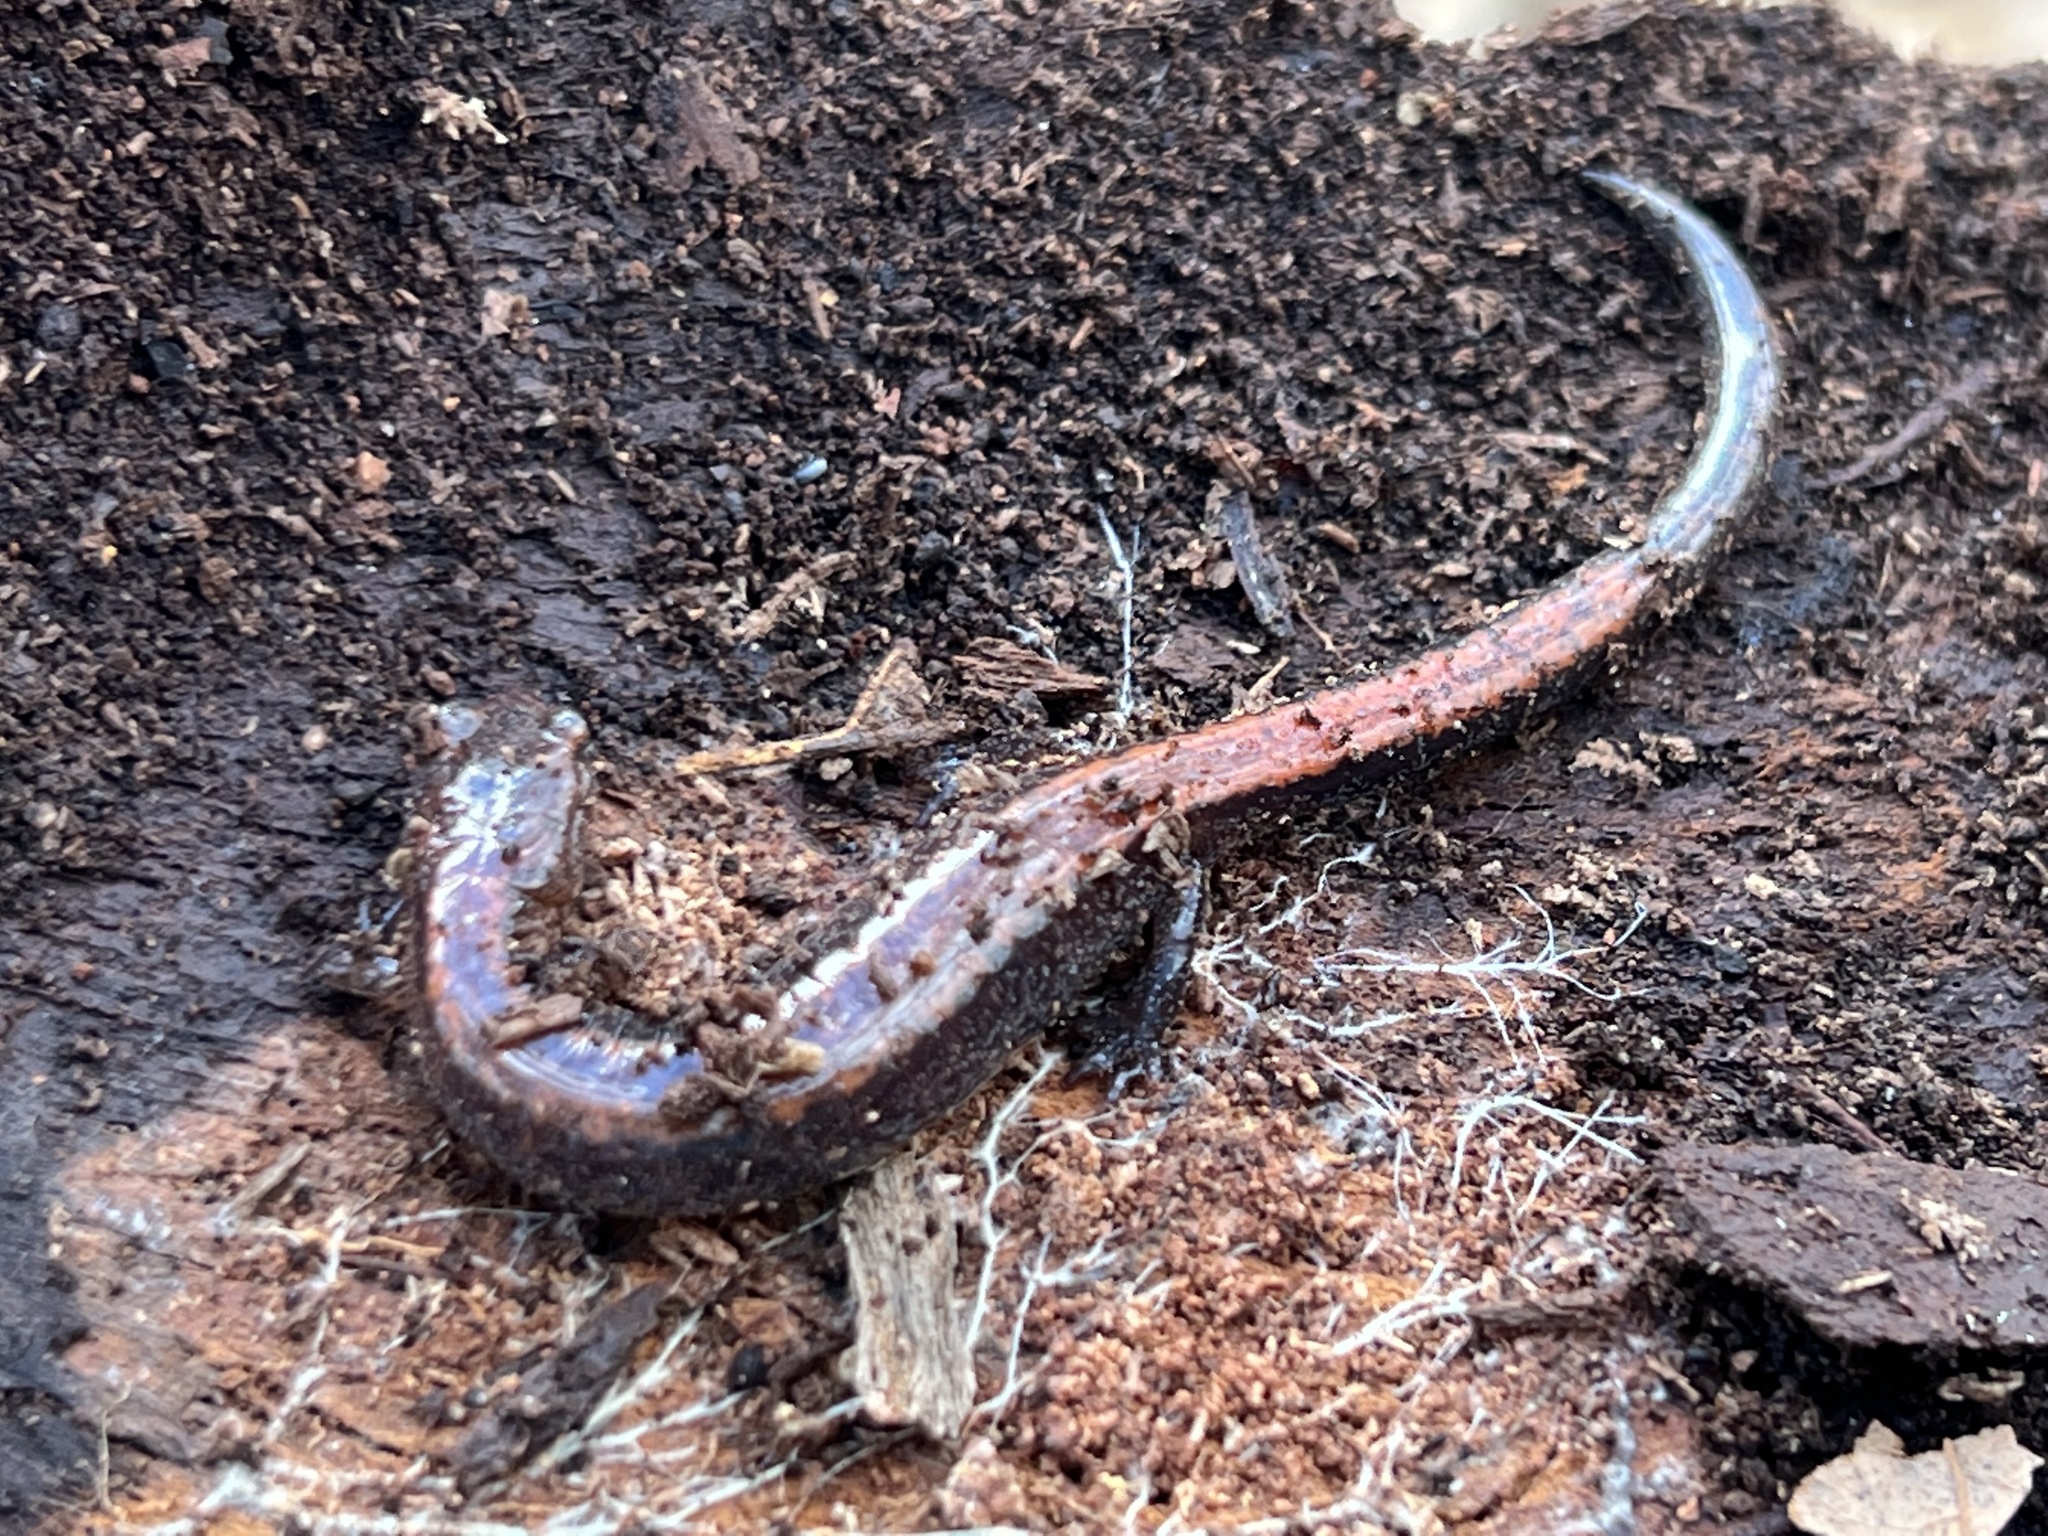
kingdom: Animalia
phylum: Chordata
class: Amphibia
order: Caudata
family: Plethodontidae
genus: Plethodon
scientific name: Plethodon cinereus
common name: Redback salamander
